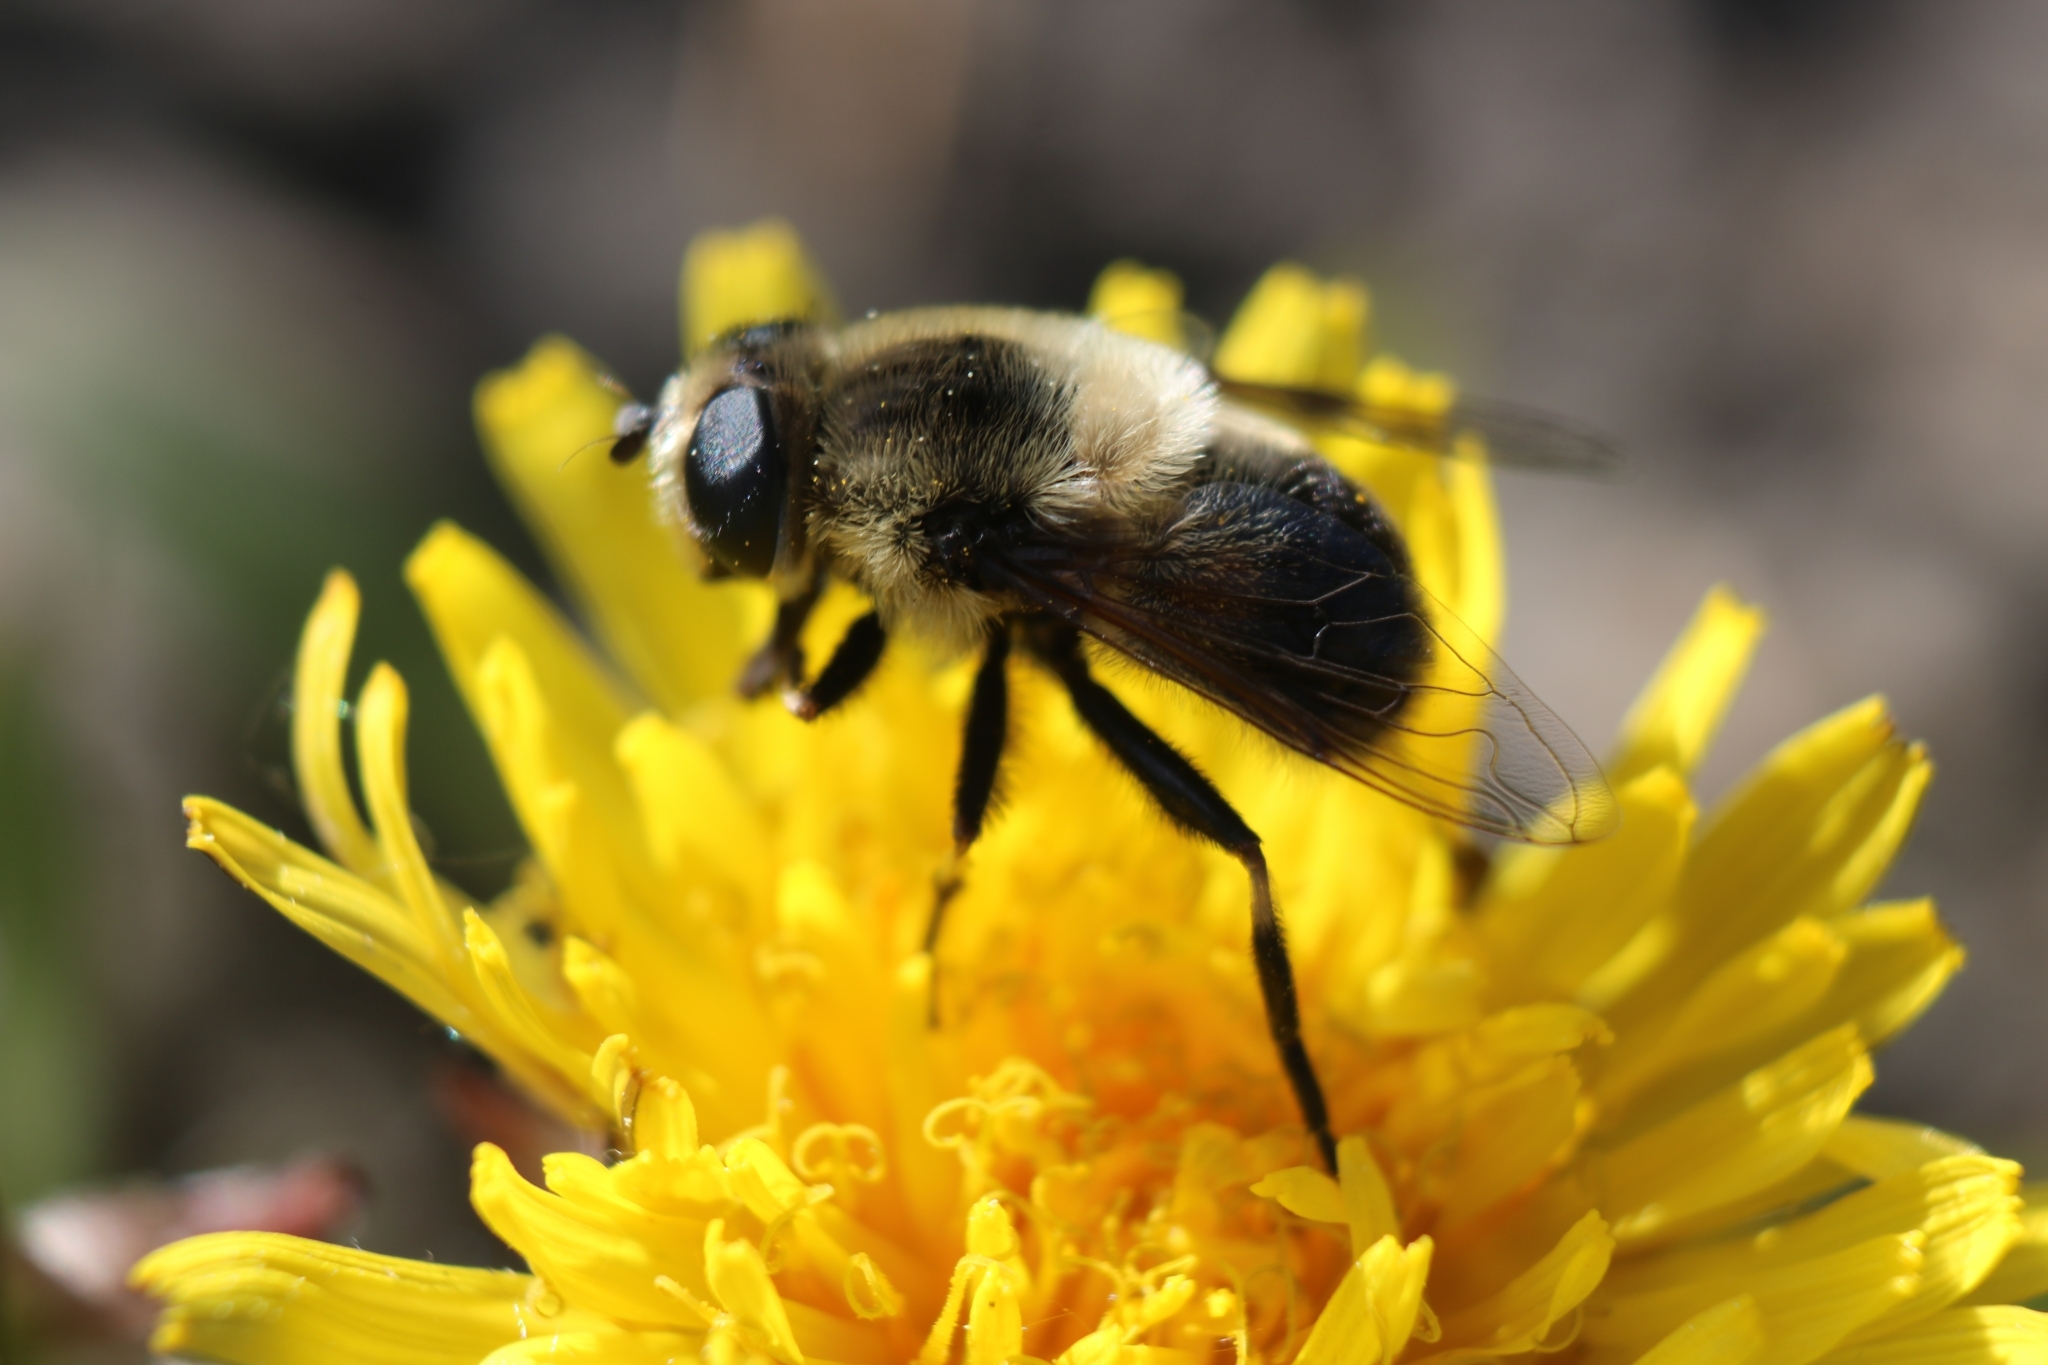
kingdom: Animalia
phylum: Arthropoda
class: Insecta
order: Diptera
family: Syrphidae
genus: Eristalis
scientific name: Eristalis anthophorina
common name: Orange-spotted drone fly
